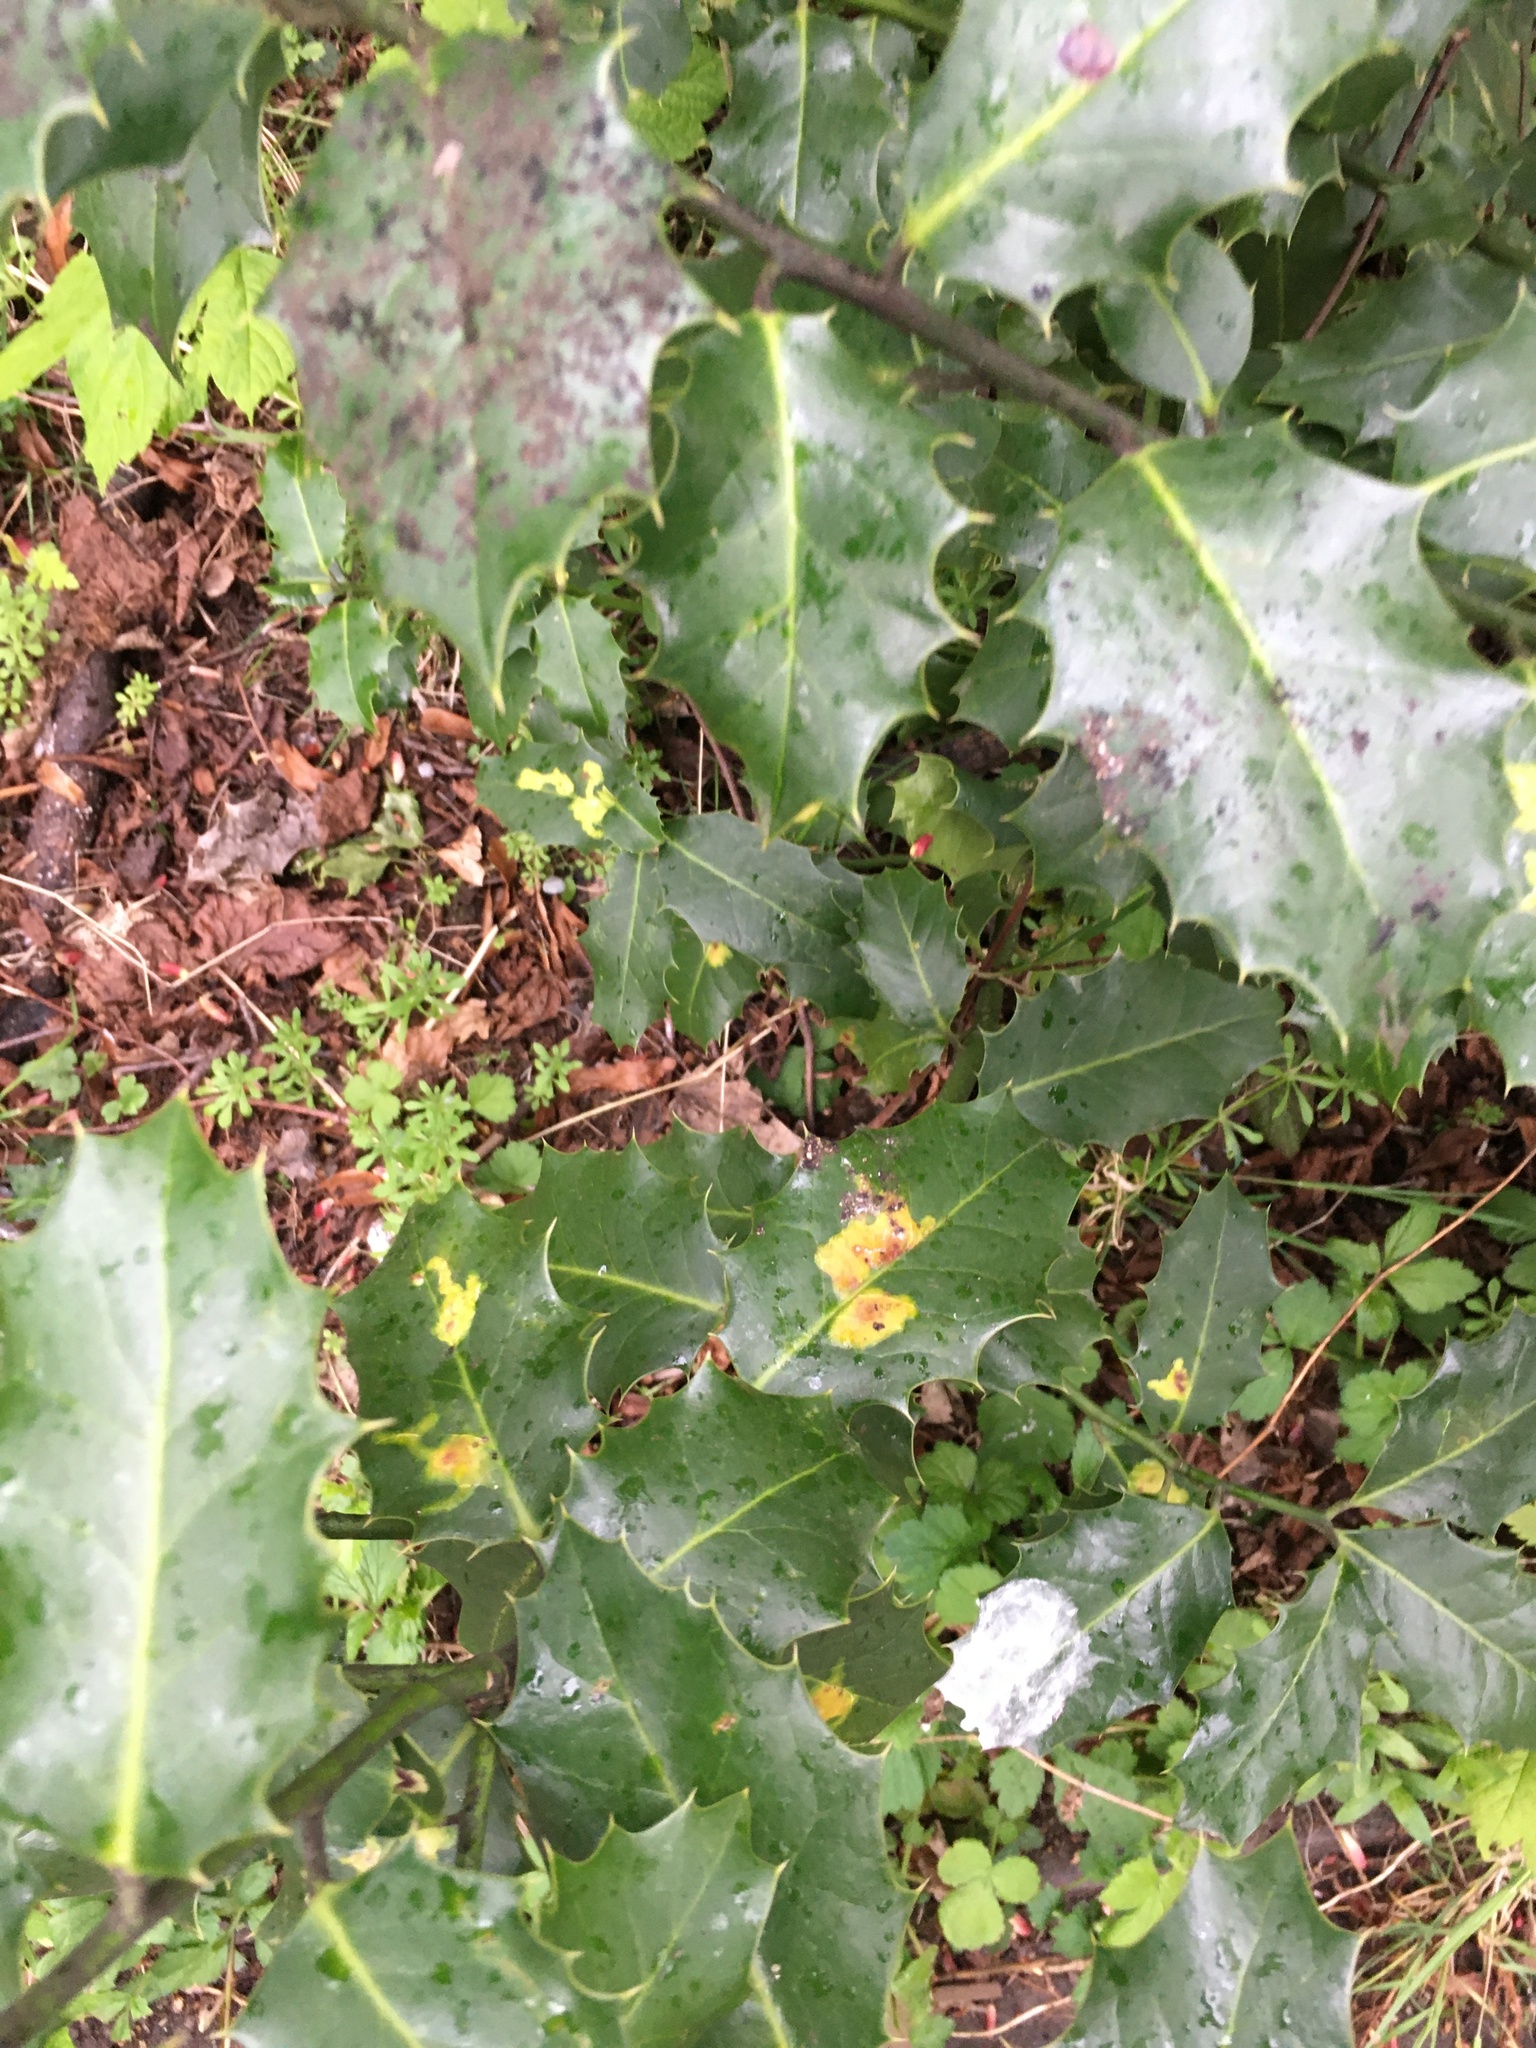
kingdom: Animalia
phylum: Arthropoda
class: Insecta
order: Diptera
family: Agromyzidae
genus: Phytomyza
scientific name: Phytomyza ilicis
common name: Holly leafminer
